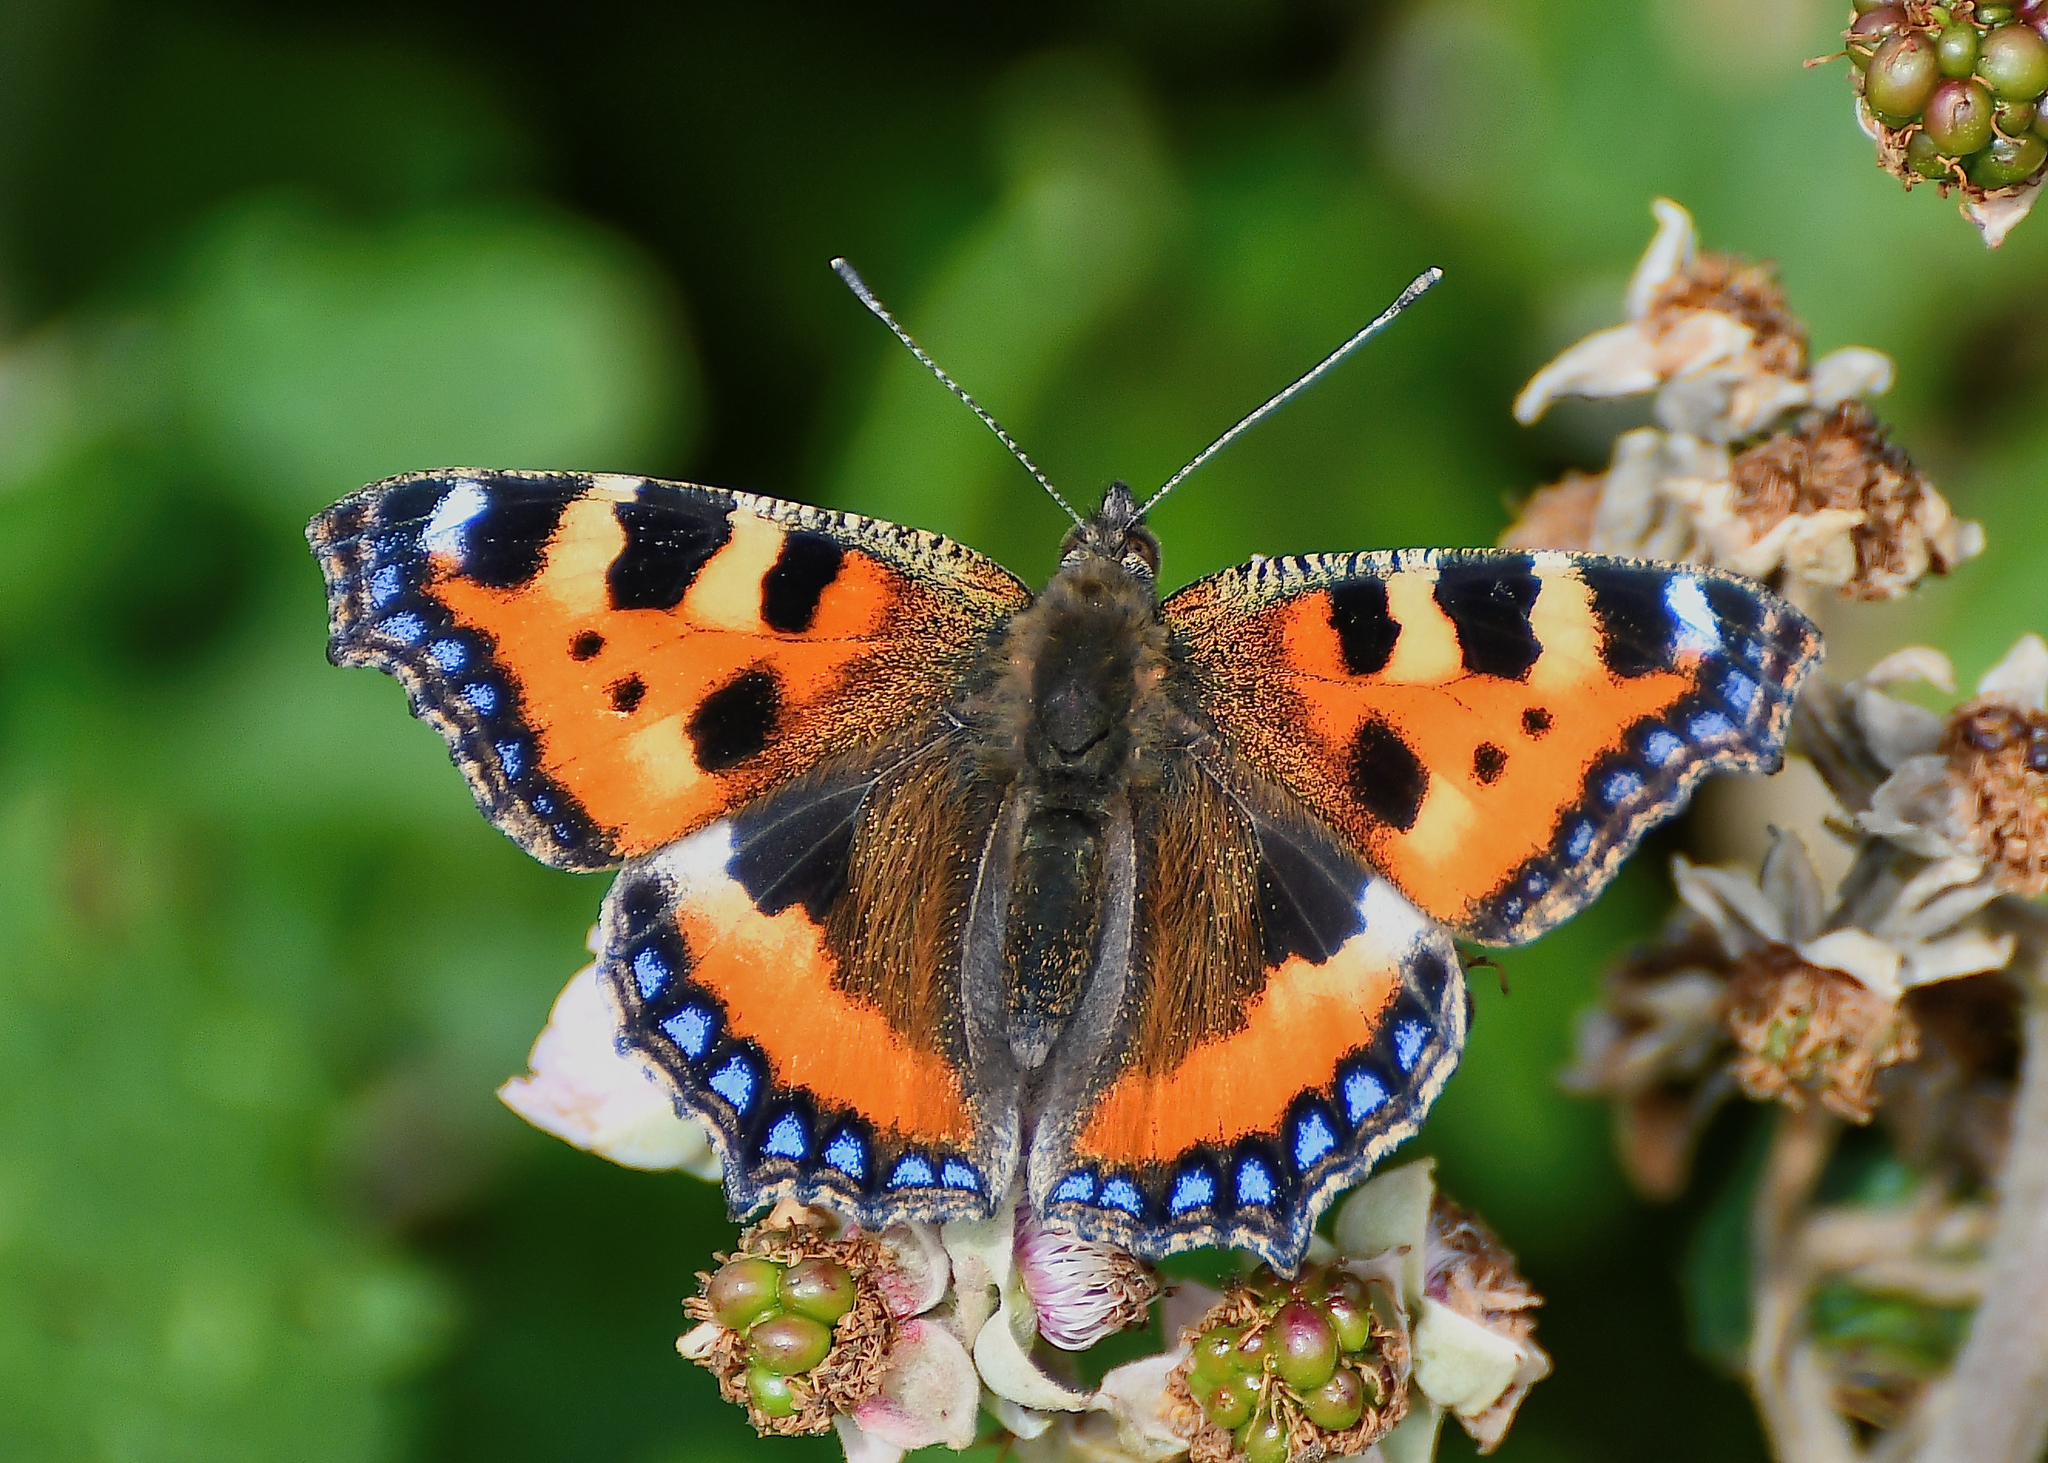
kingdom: Animalia
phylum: Arthropoda
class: Insecta
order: Lepidoptera
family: Nymphalidae
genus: Aglais
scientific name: Aglais urticae
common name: Small tortoiseshell
